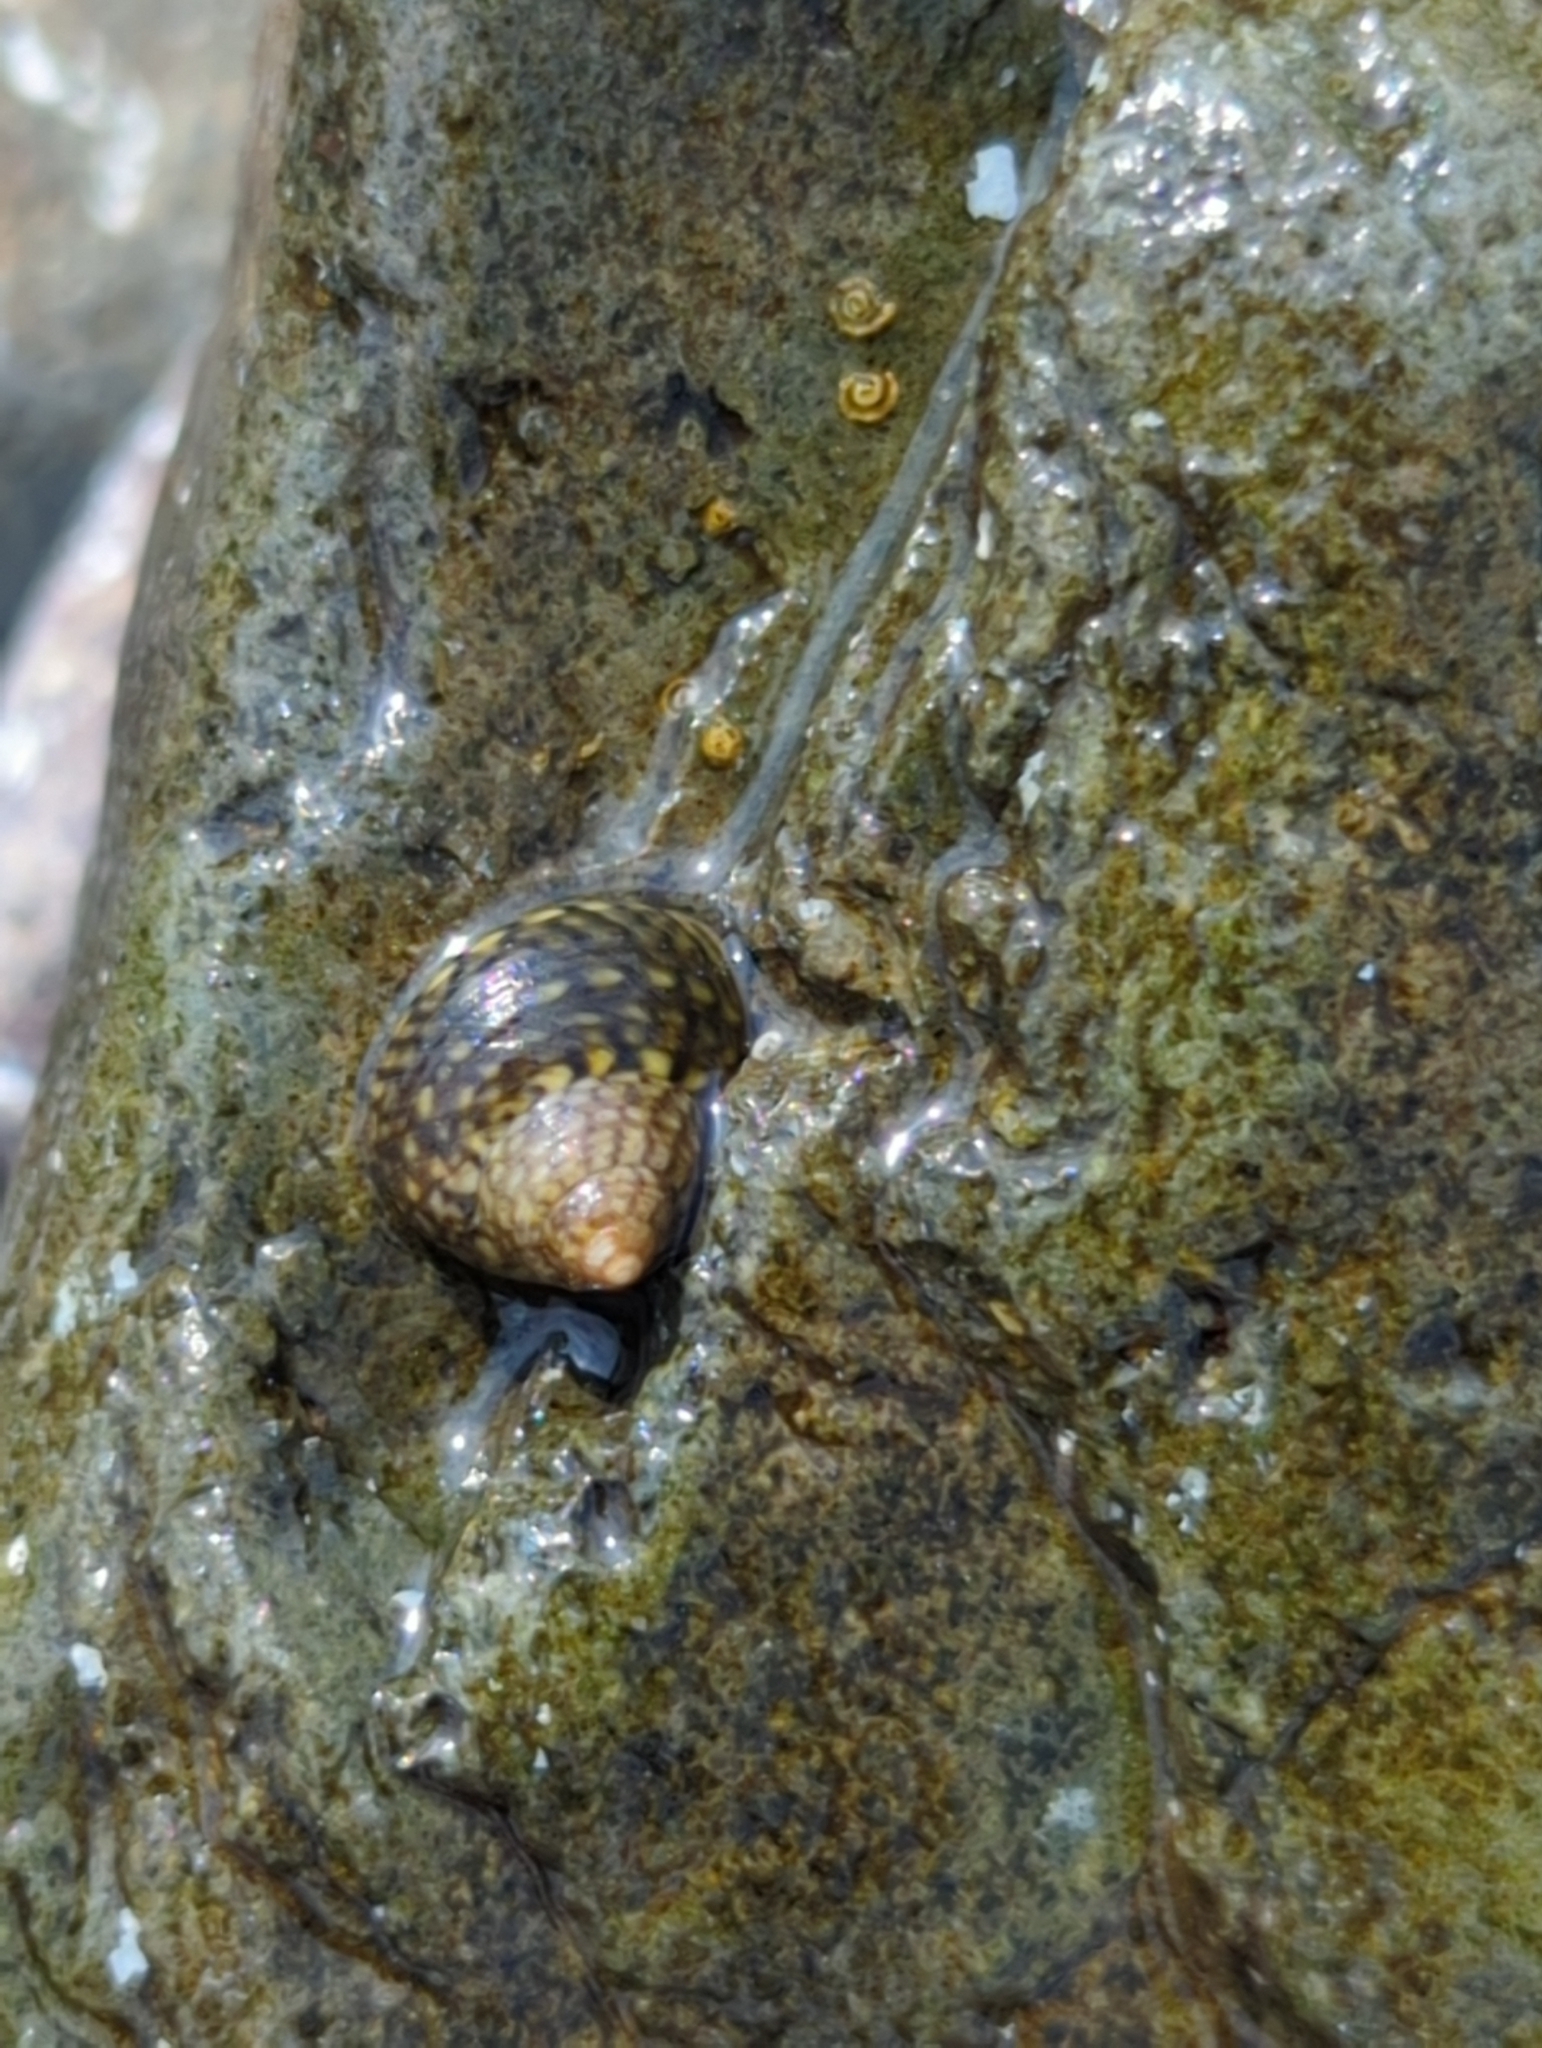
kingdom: Animalia
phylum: Mollusca
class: Gastropoda
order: Trochida
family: Trochidae
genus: Phorcus
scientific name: Phorcus articulatus
